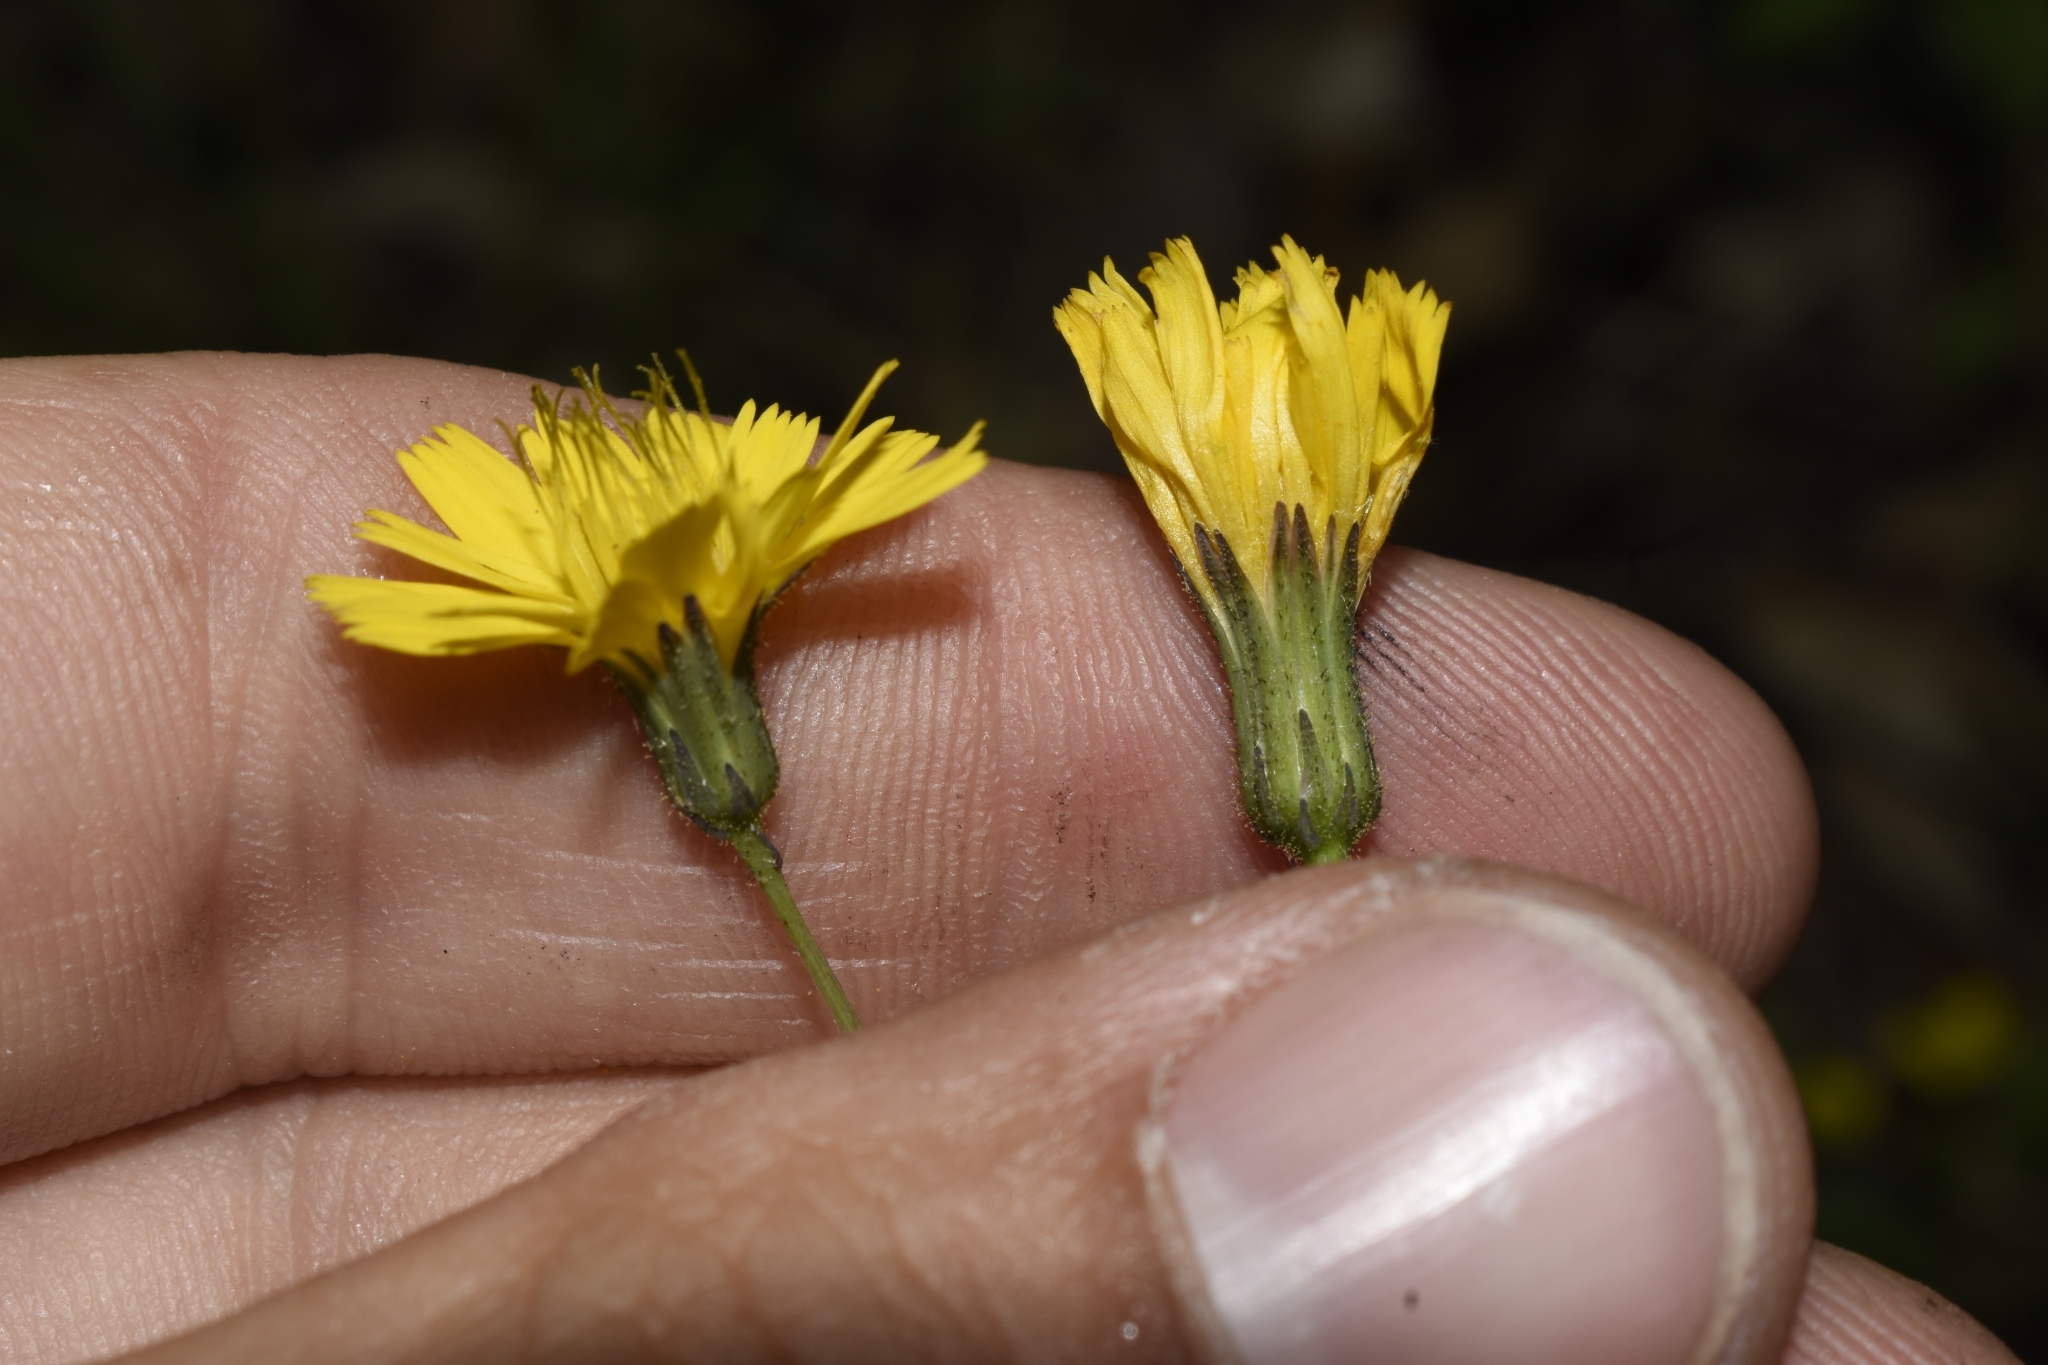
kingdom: Plantae
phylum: Tracheophyta
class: Magnoliopsida
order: Asterales
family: Asteraceae
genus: Hieracium
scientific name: Hieracium venosum
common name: Rattlesnake hawkweed
